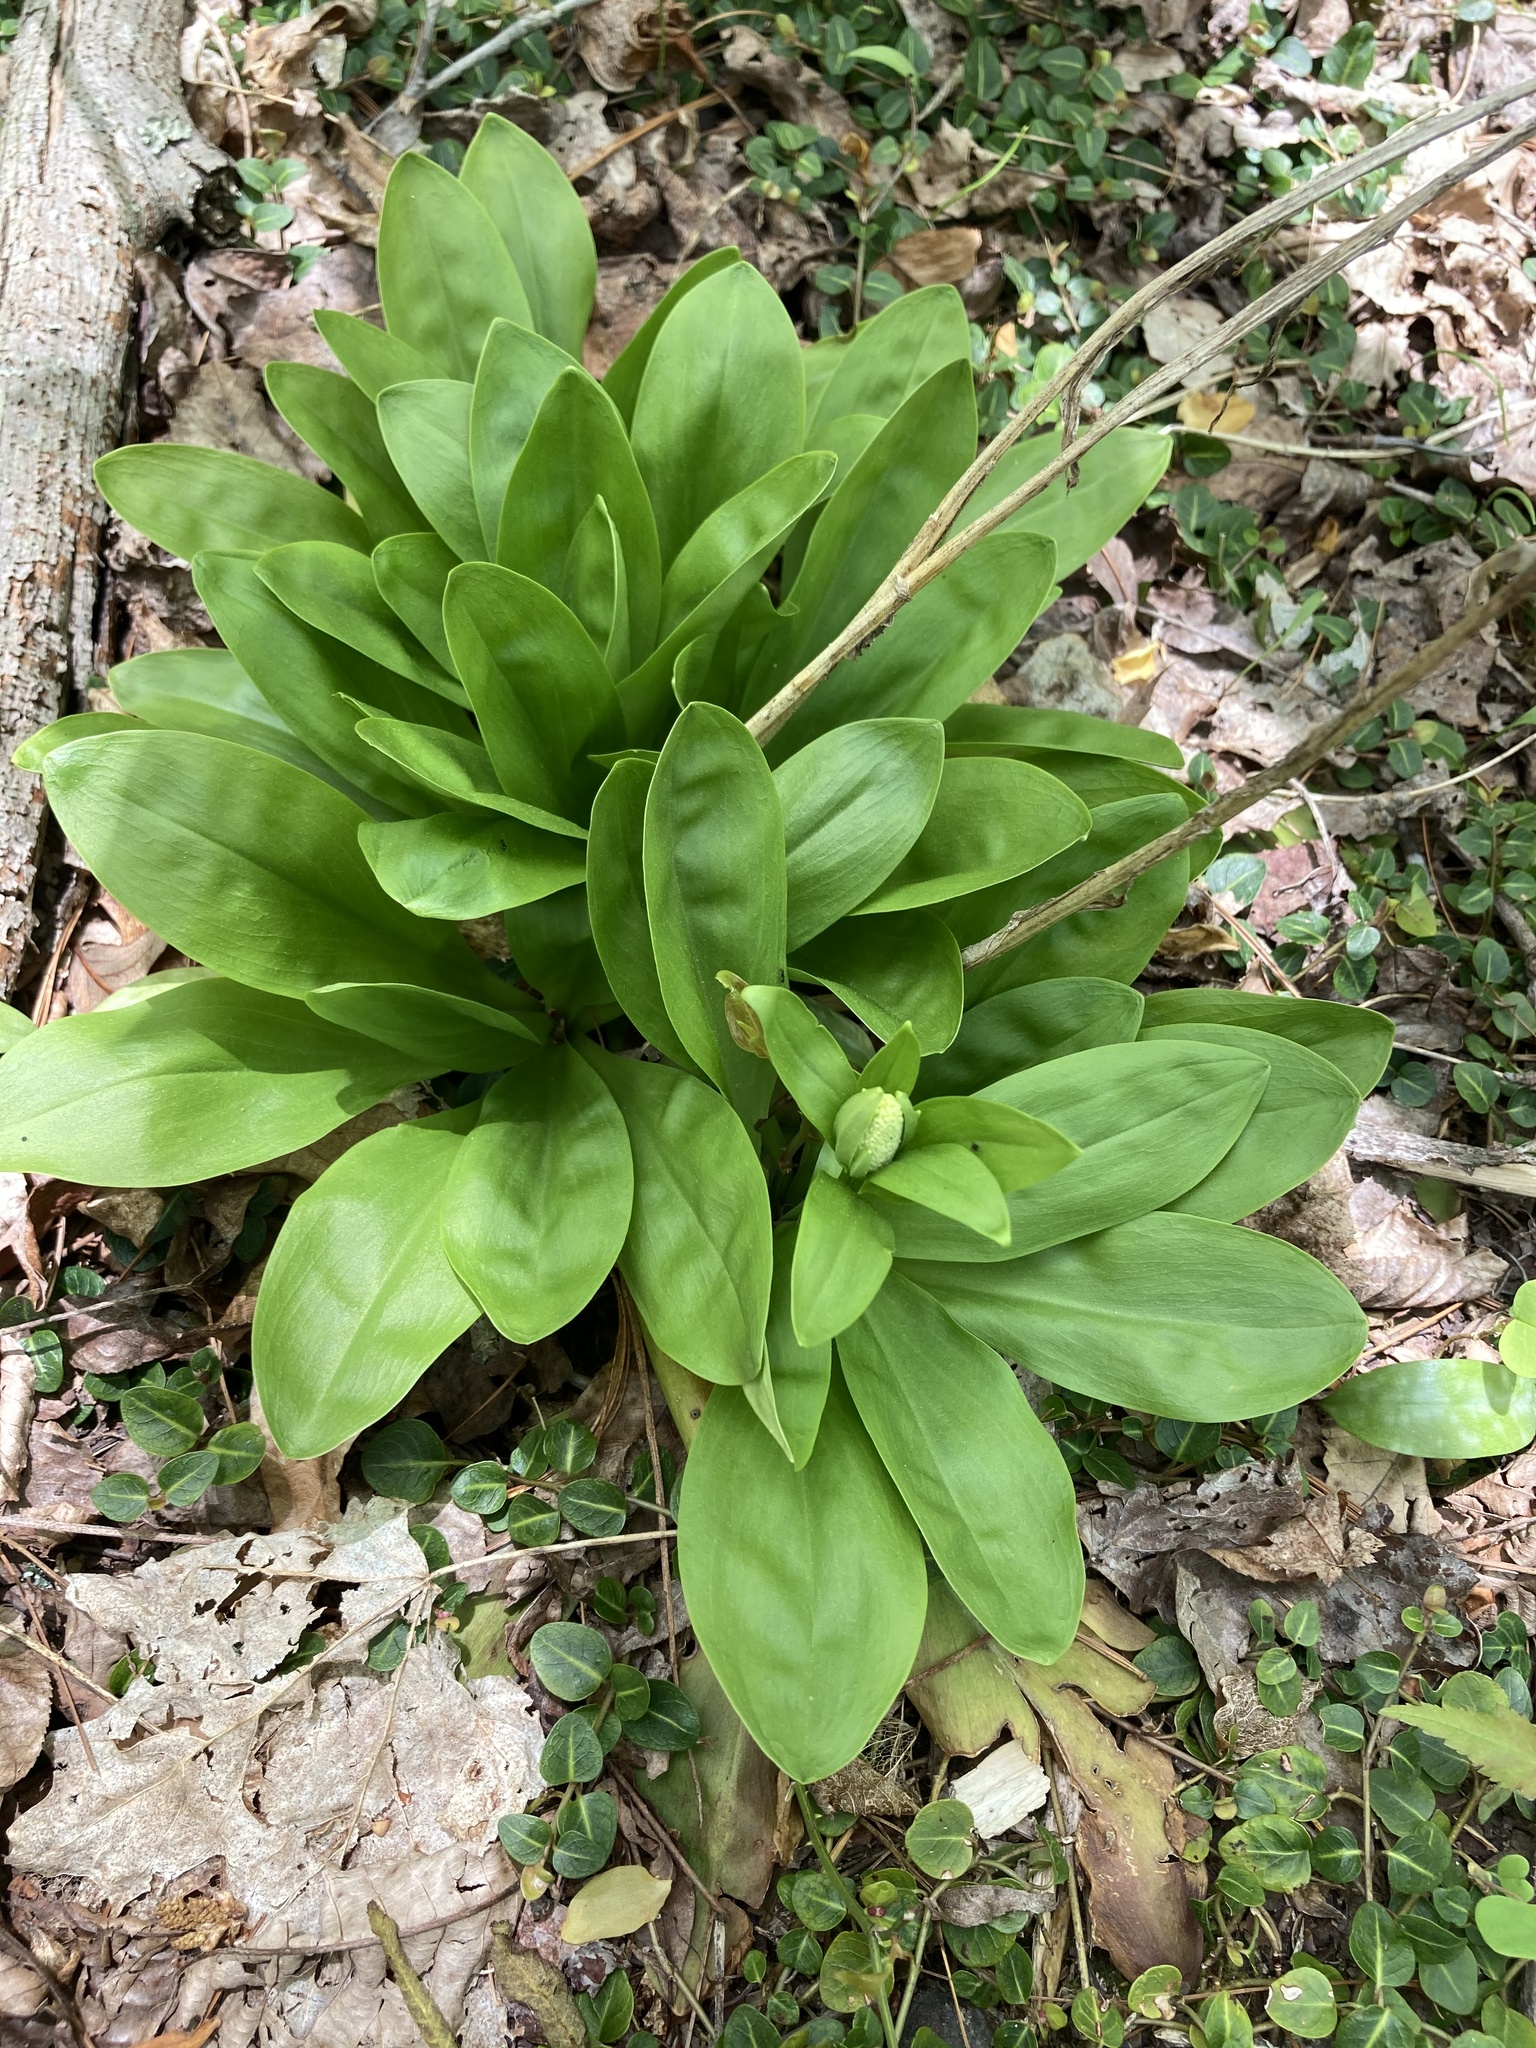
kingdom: Plantae
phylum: Tracheophyta
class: Liliopsida
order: Liliales
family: Melanthiaceae
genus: Chamaelirium
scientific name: Chamaelirium luteum
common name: Fairy-wand
